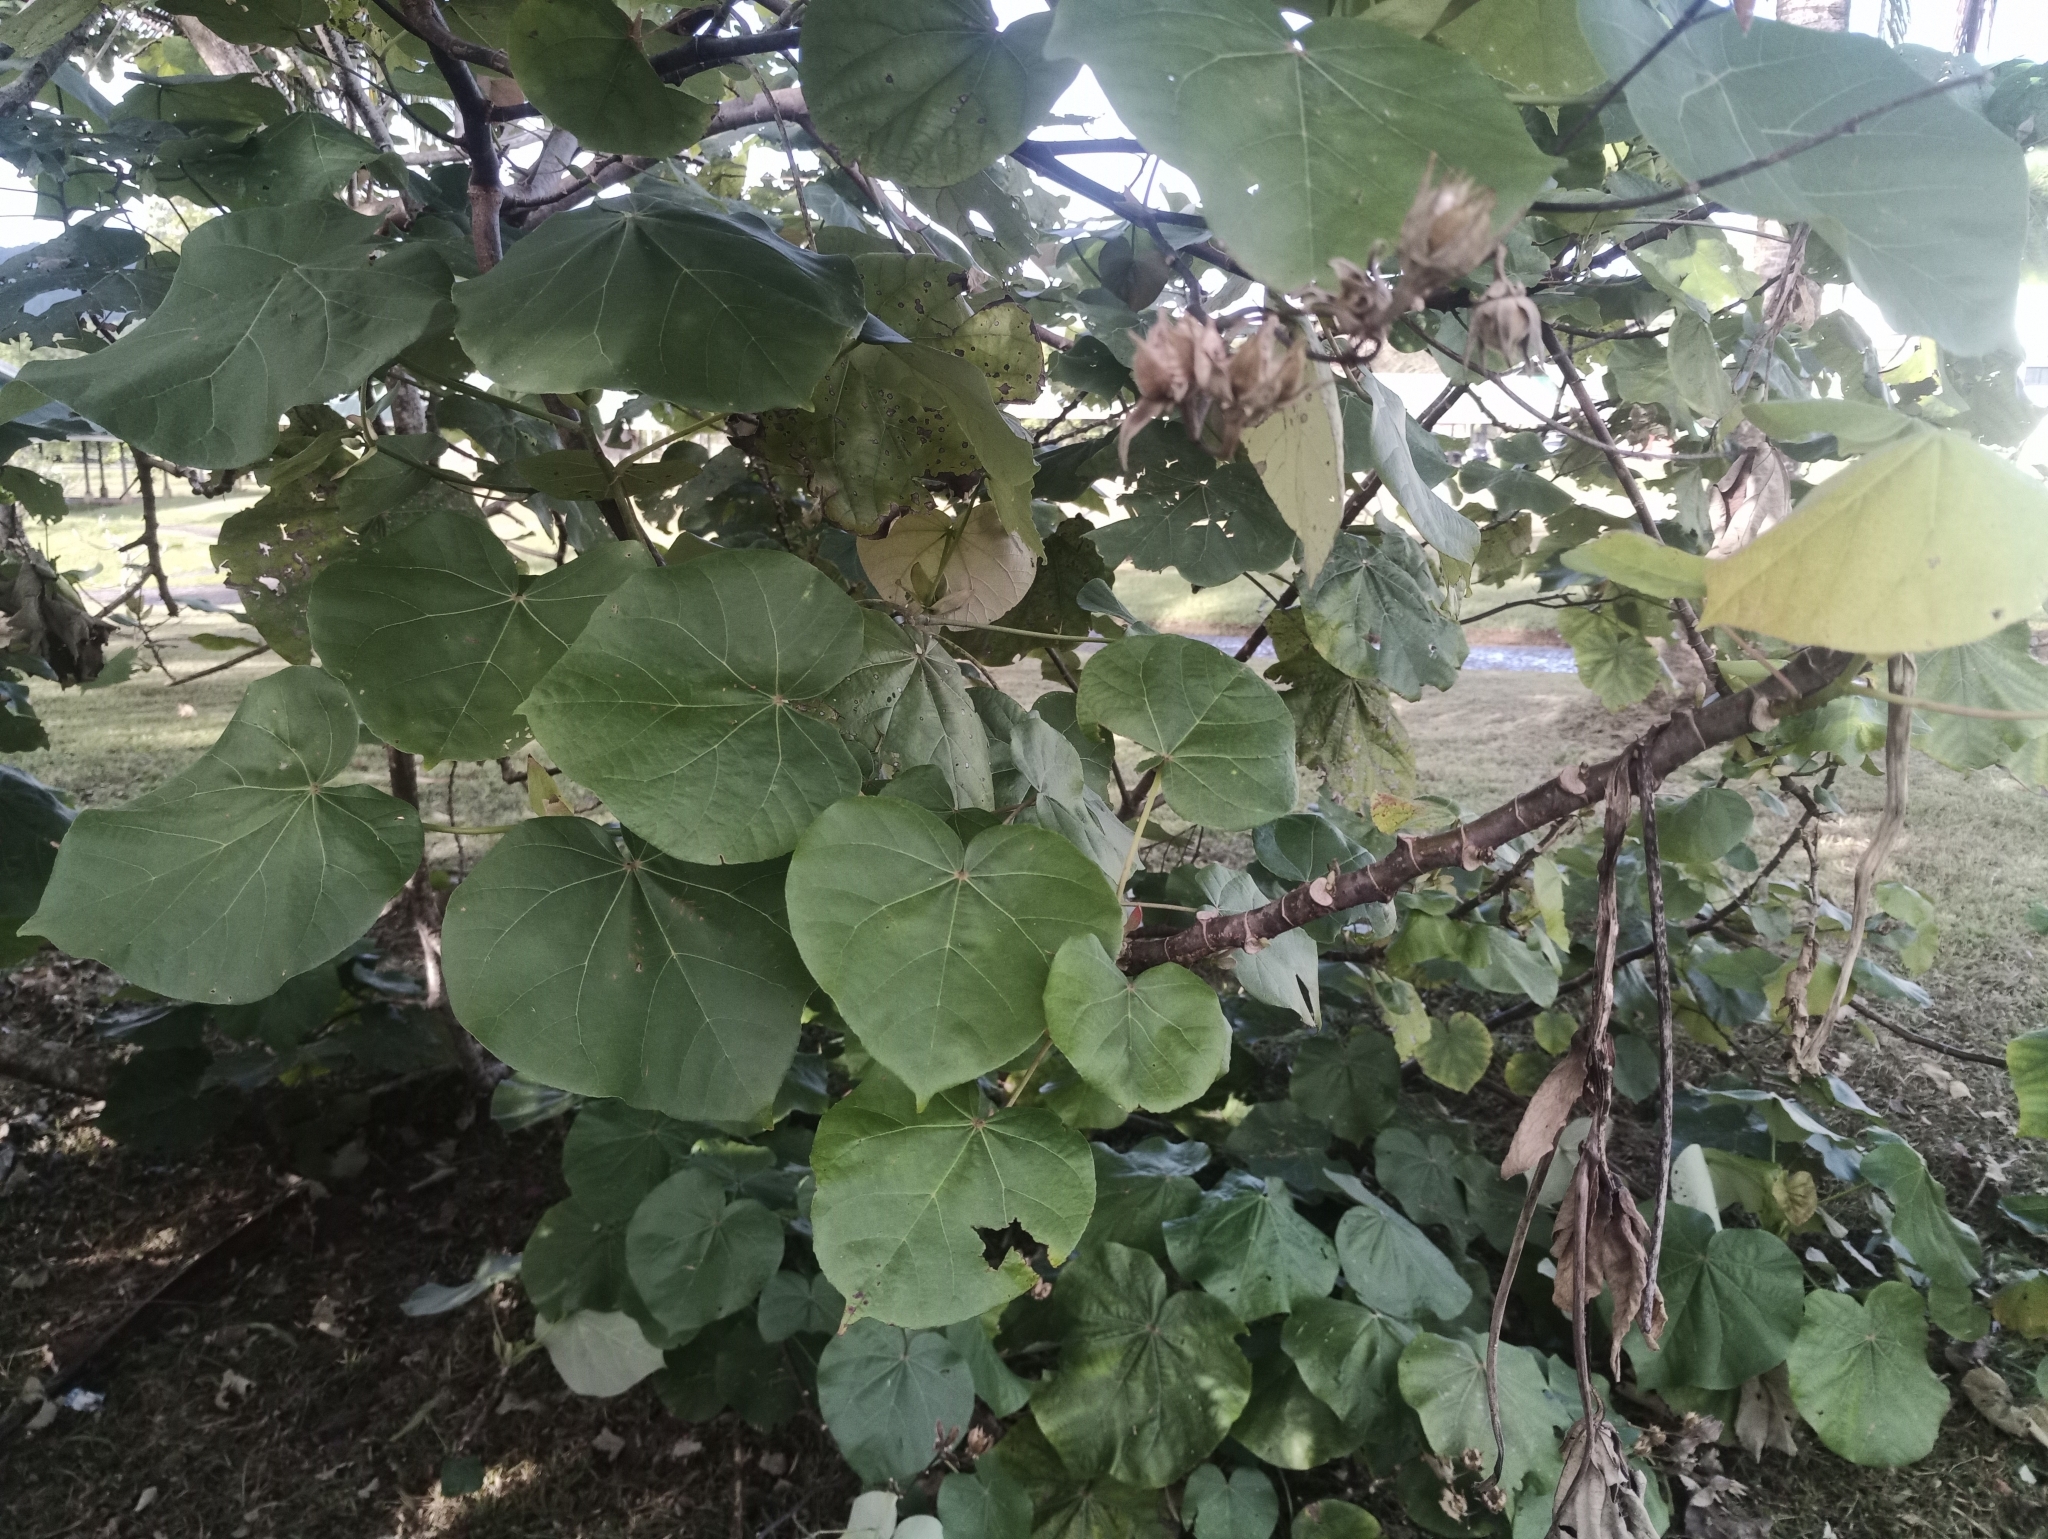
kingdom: Plantae
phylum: Tracheophyta
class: Magnoliopsida
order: Malvales
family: Malvaceae
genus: Talipariti
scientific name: Talipariti tiliaceum
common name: Sea hibiscus
